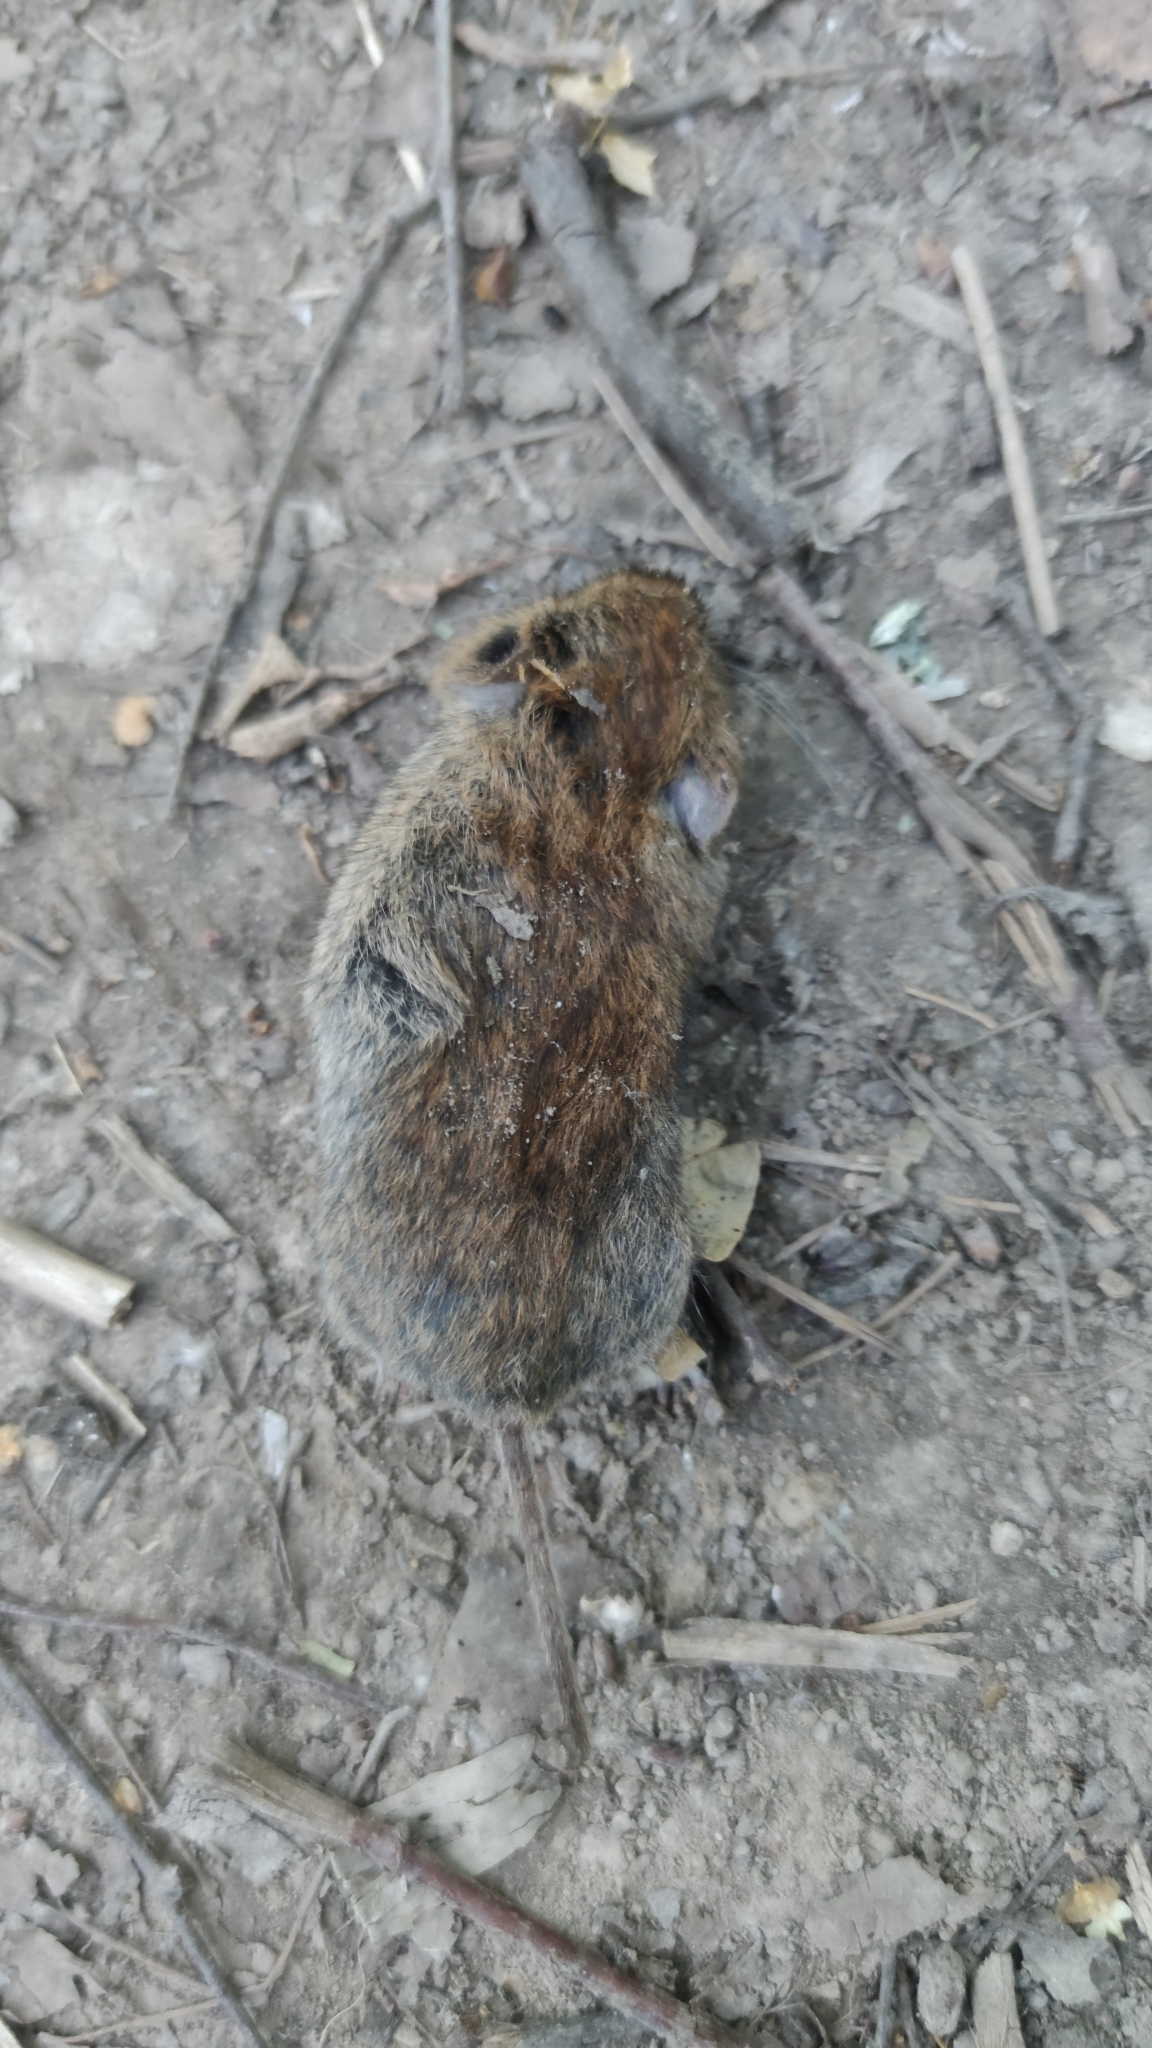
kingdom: Animalia
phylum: Chordata
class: Mammalia
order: Rodentia
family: Cricetidae
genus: Myodes
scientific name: Myodes glareolus
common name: Bank vole
